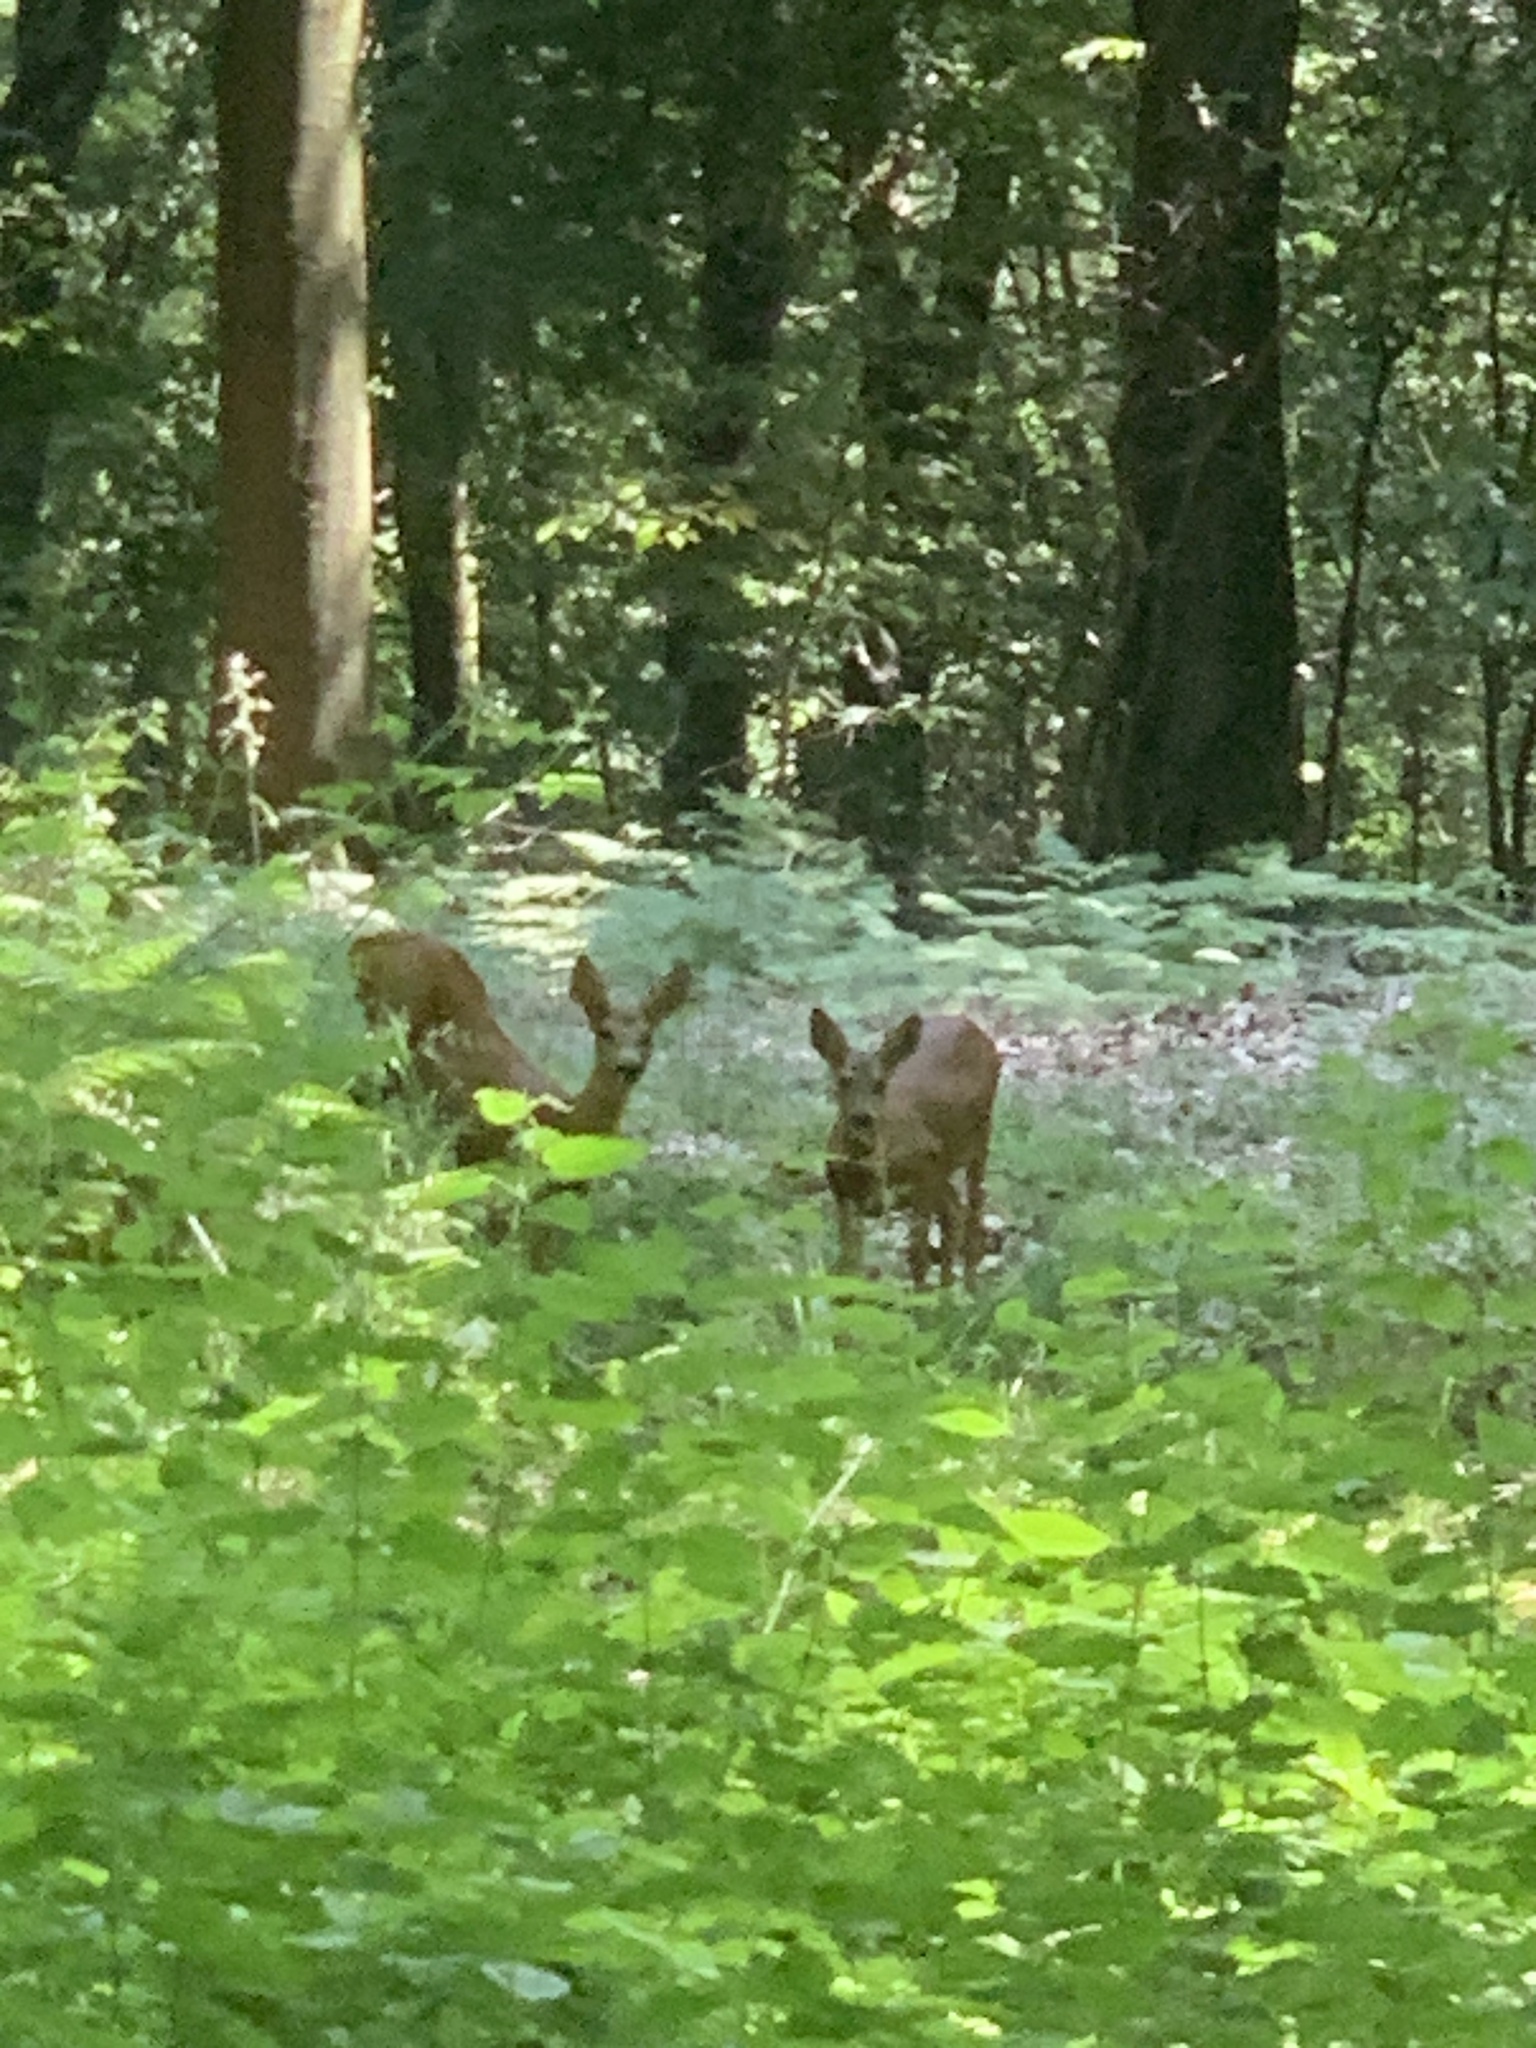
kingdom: Animalia
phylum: Chordata
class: Mammalia
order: Artiodactyla
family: Cervidae
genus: Capreolus
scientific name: Capreolus capreolus
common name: Western roe deer
